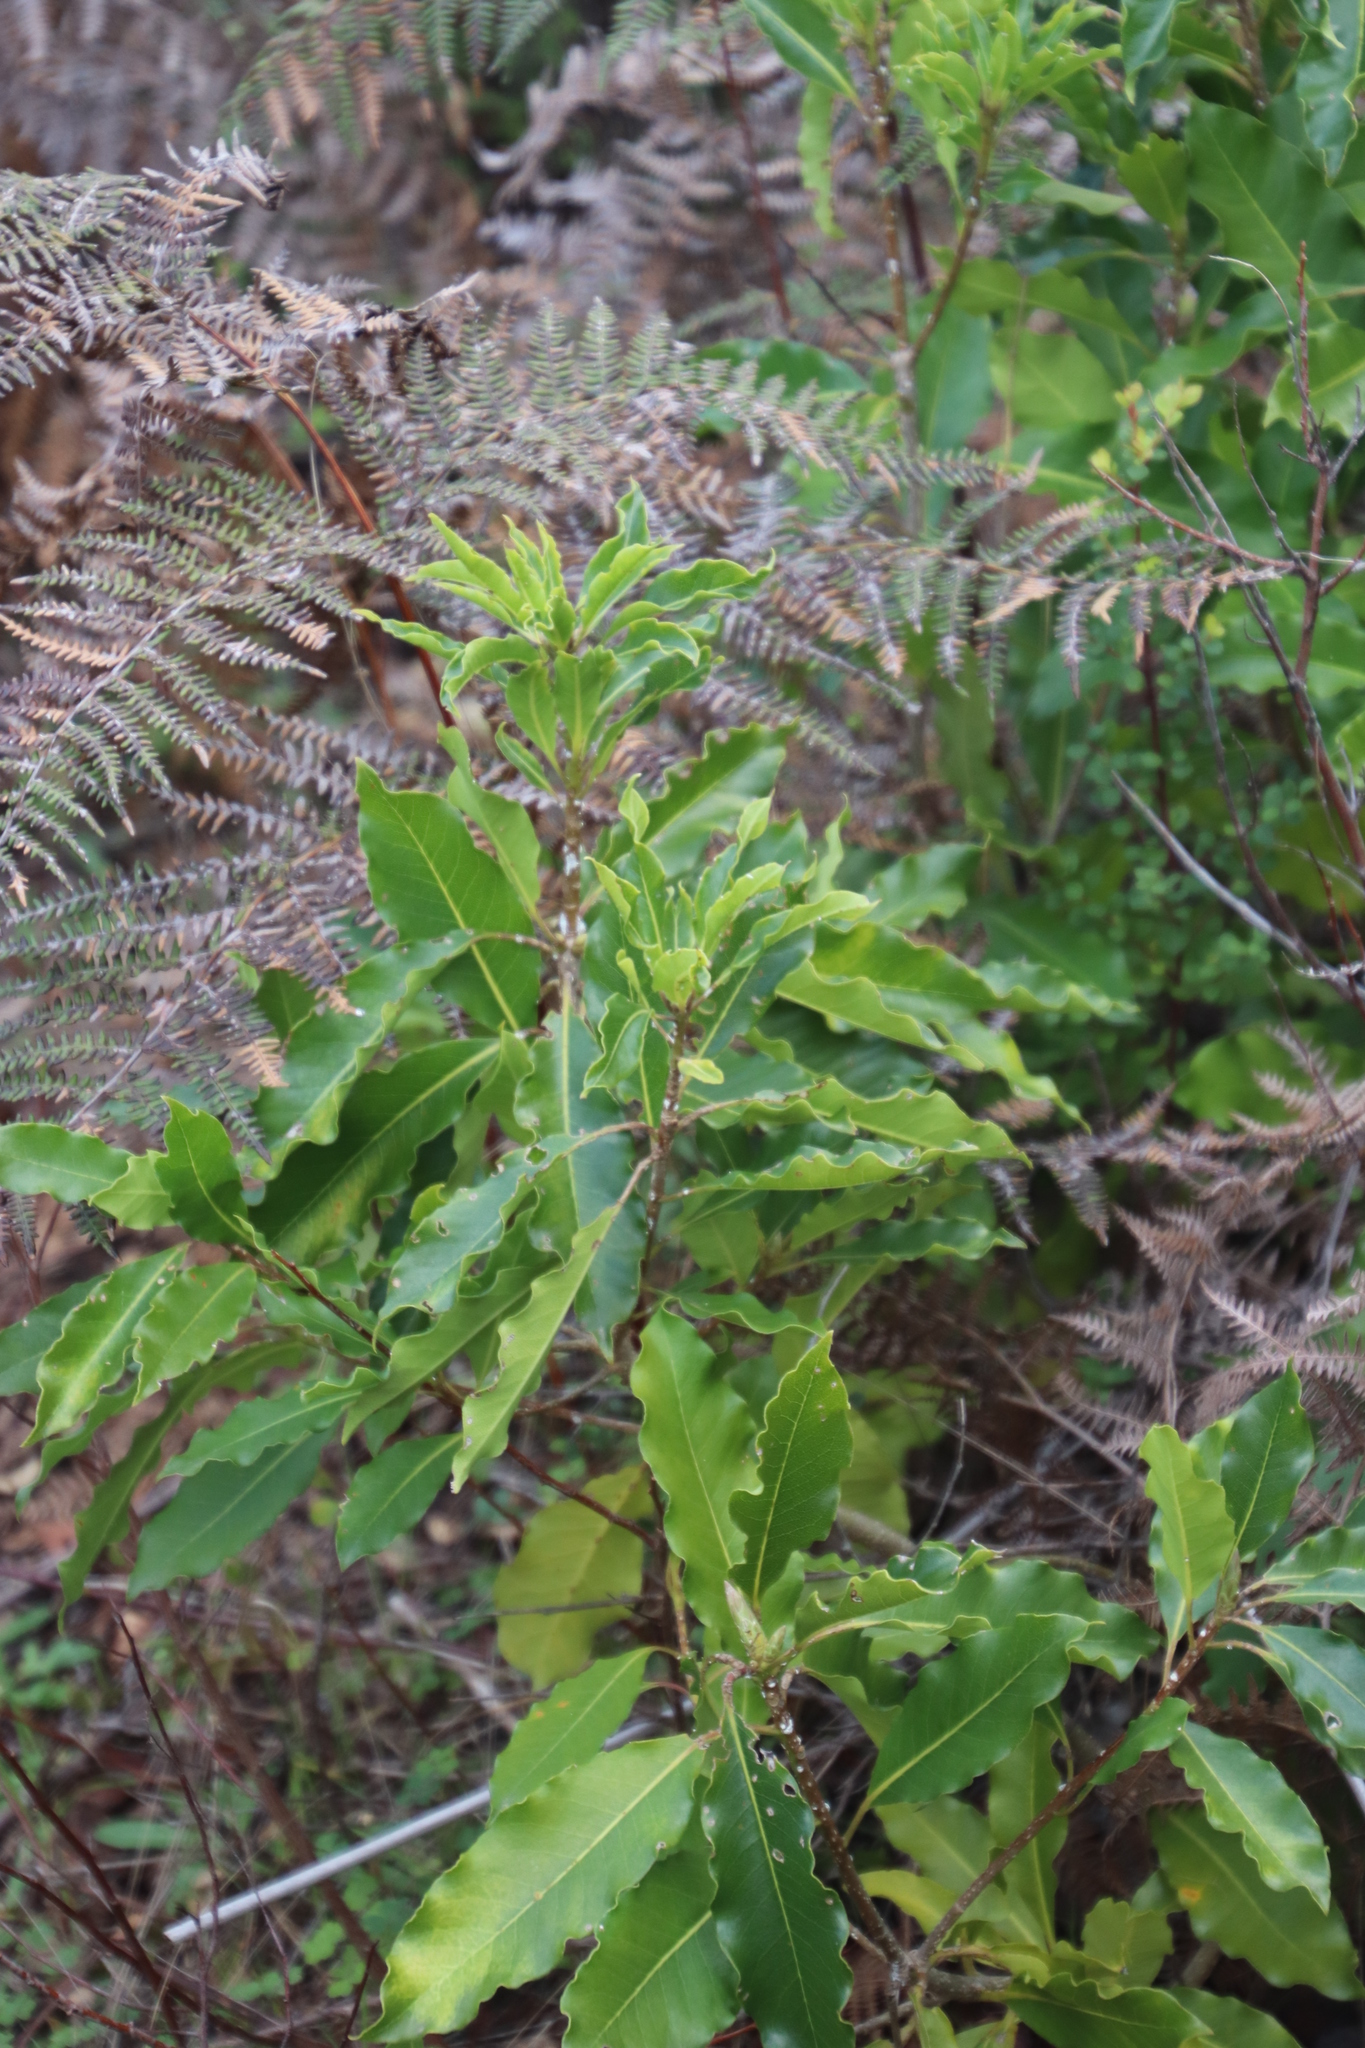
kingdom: Plantae
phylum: Tracheophyta
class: Magnoliopsida
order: Apiales
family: Pittosporaceae
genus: Pittosporum
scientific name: Pittosporum undulatum
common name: Australian cheesewood
